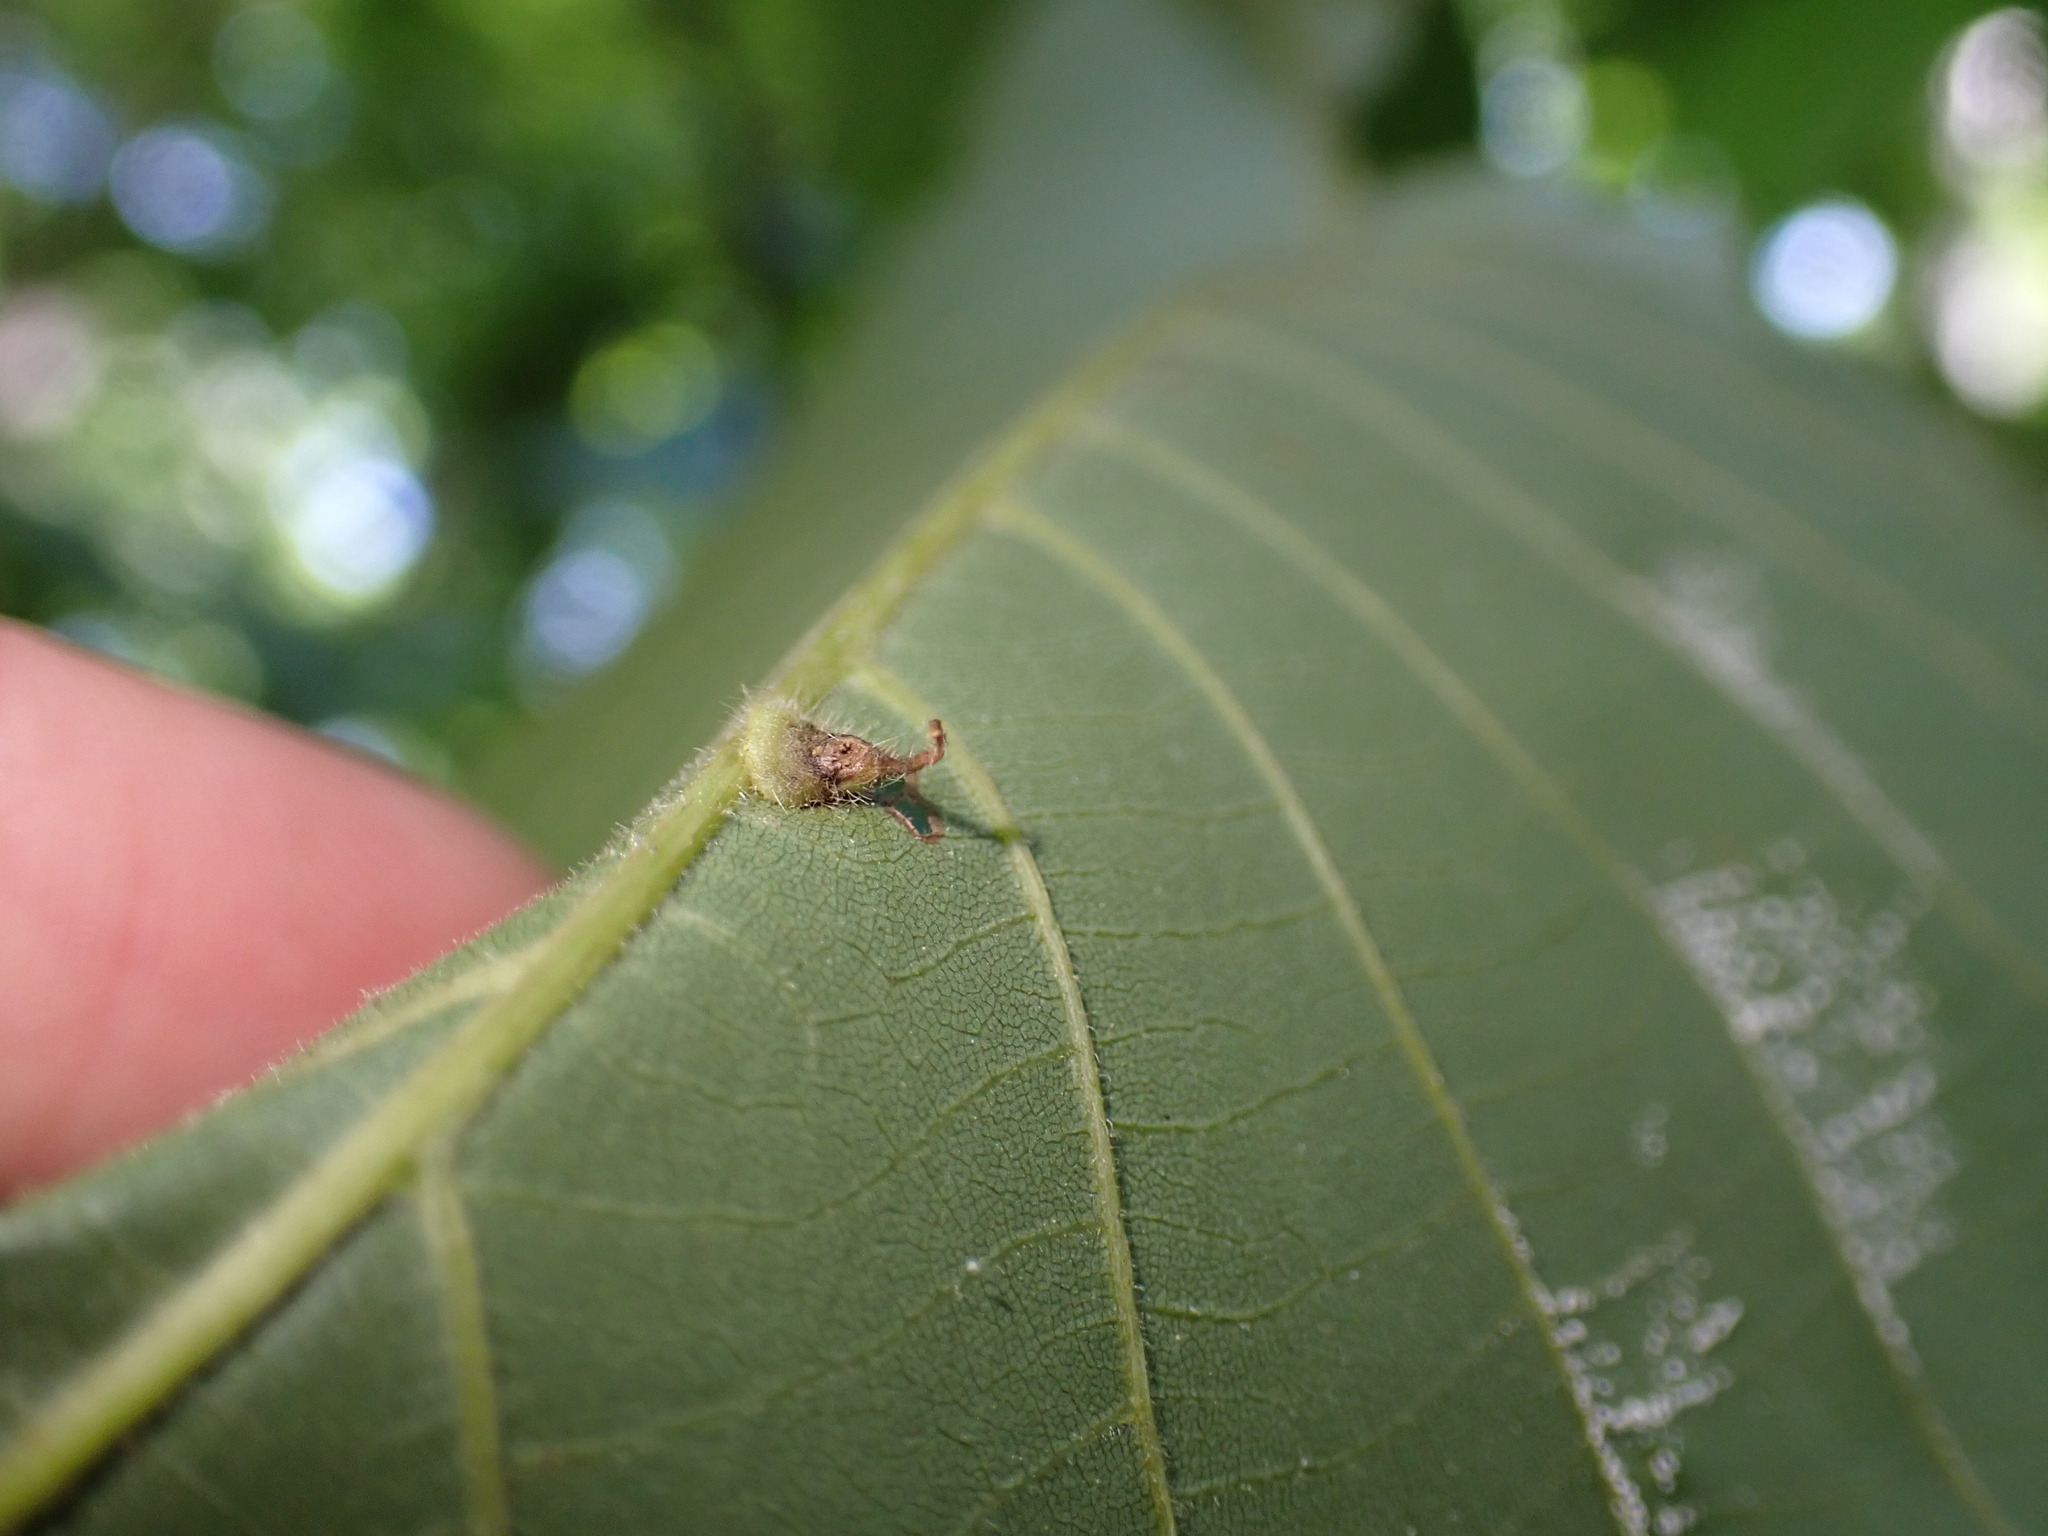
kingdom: Animalia
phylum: Arthropoda
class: Insecta
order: Diptera
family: Cecidomyiidae
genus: Caryomyia
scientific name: Caryomyia inclinata
